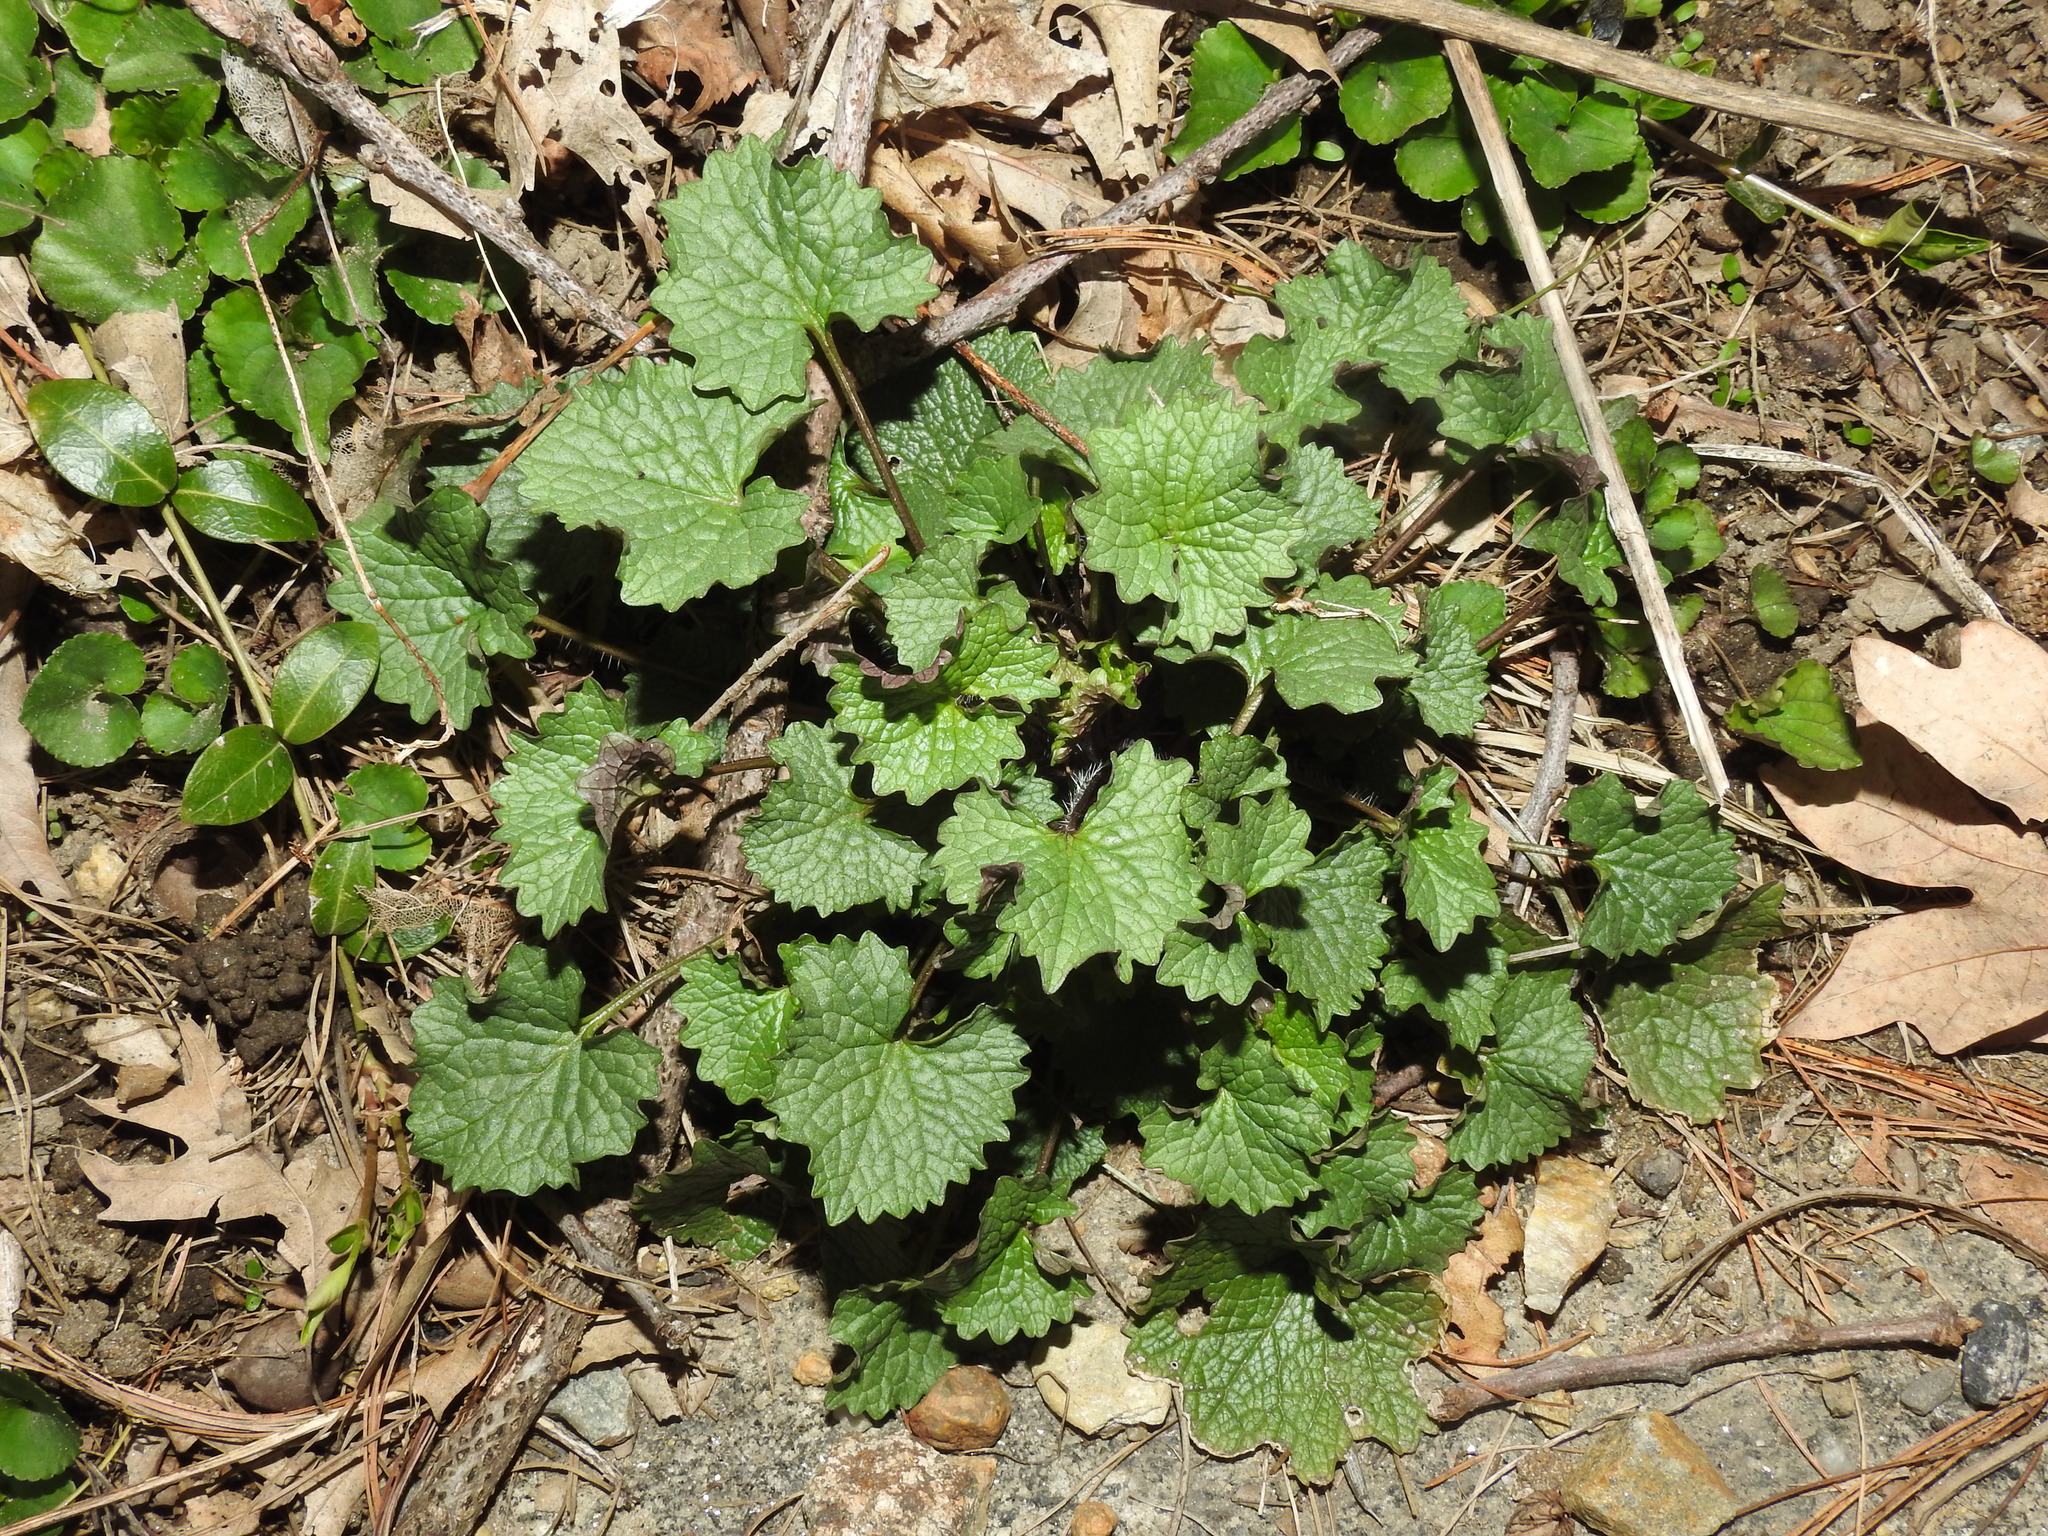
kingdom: Plantae
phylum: Tracheophyta
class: Magnoliopsida
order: Brassicales
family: Brassicaceae
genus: Alliaria
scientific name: Alliaria petiolata
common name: Garlic mustard
